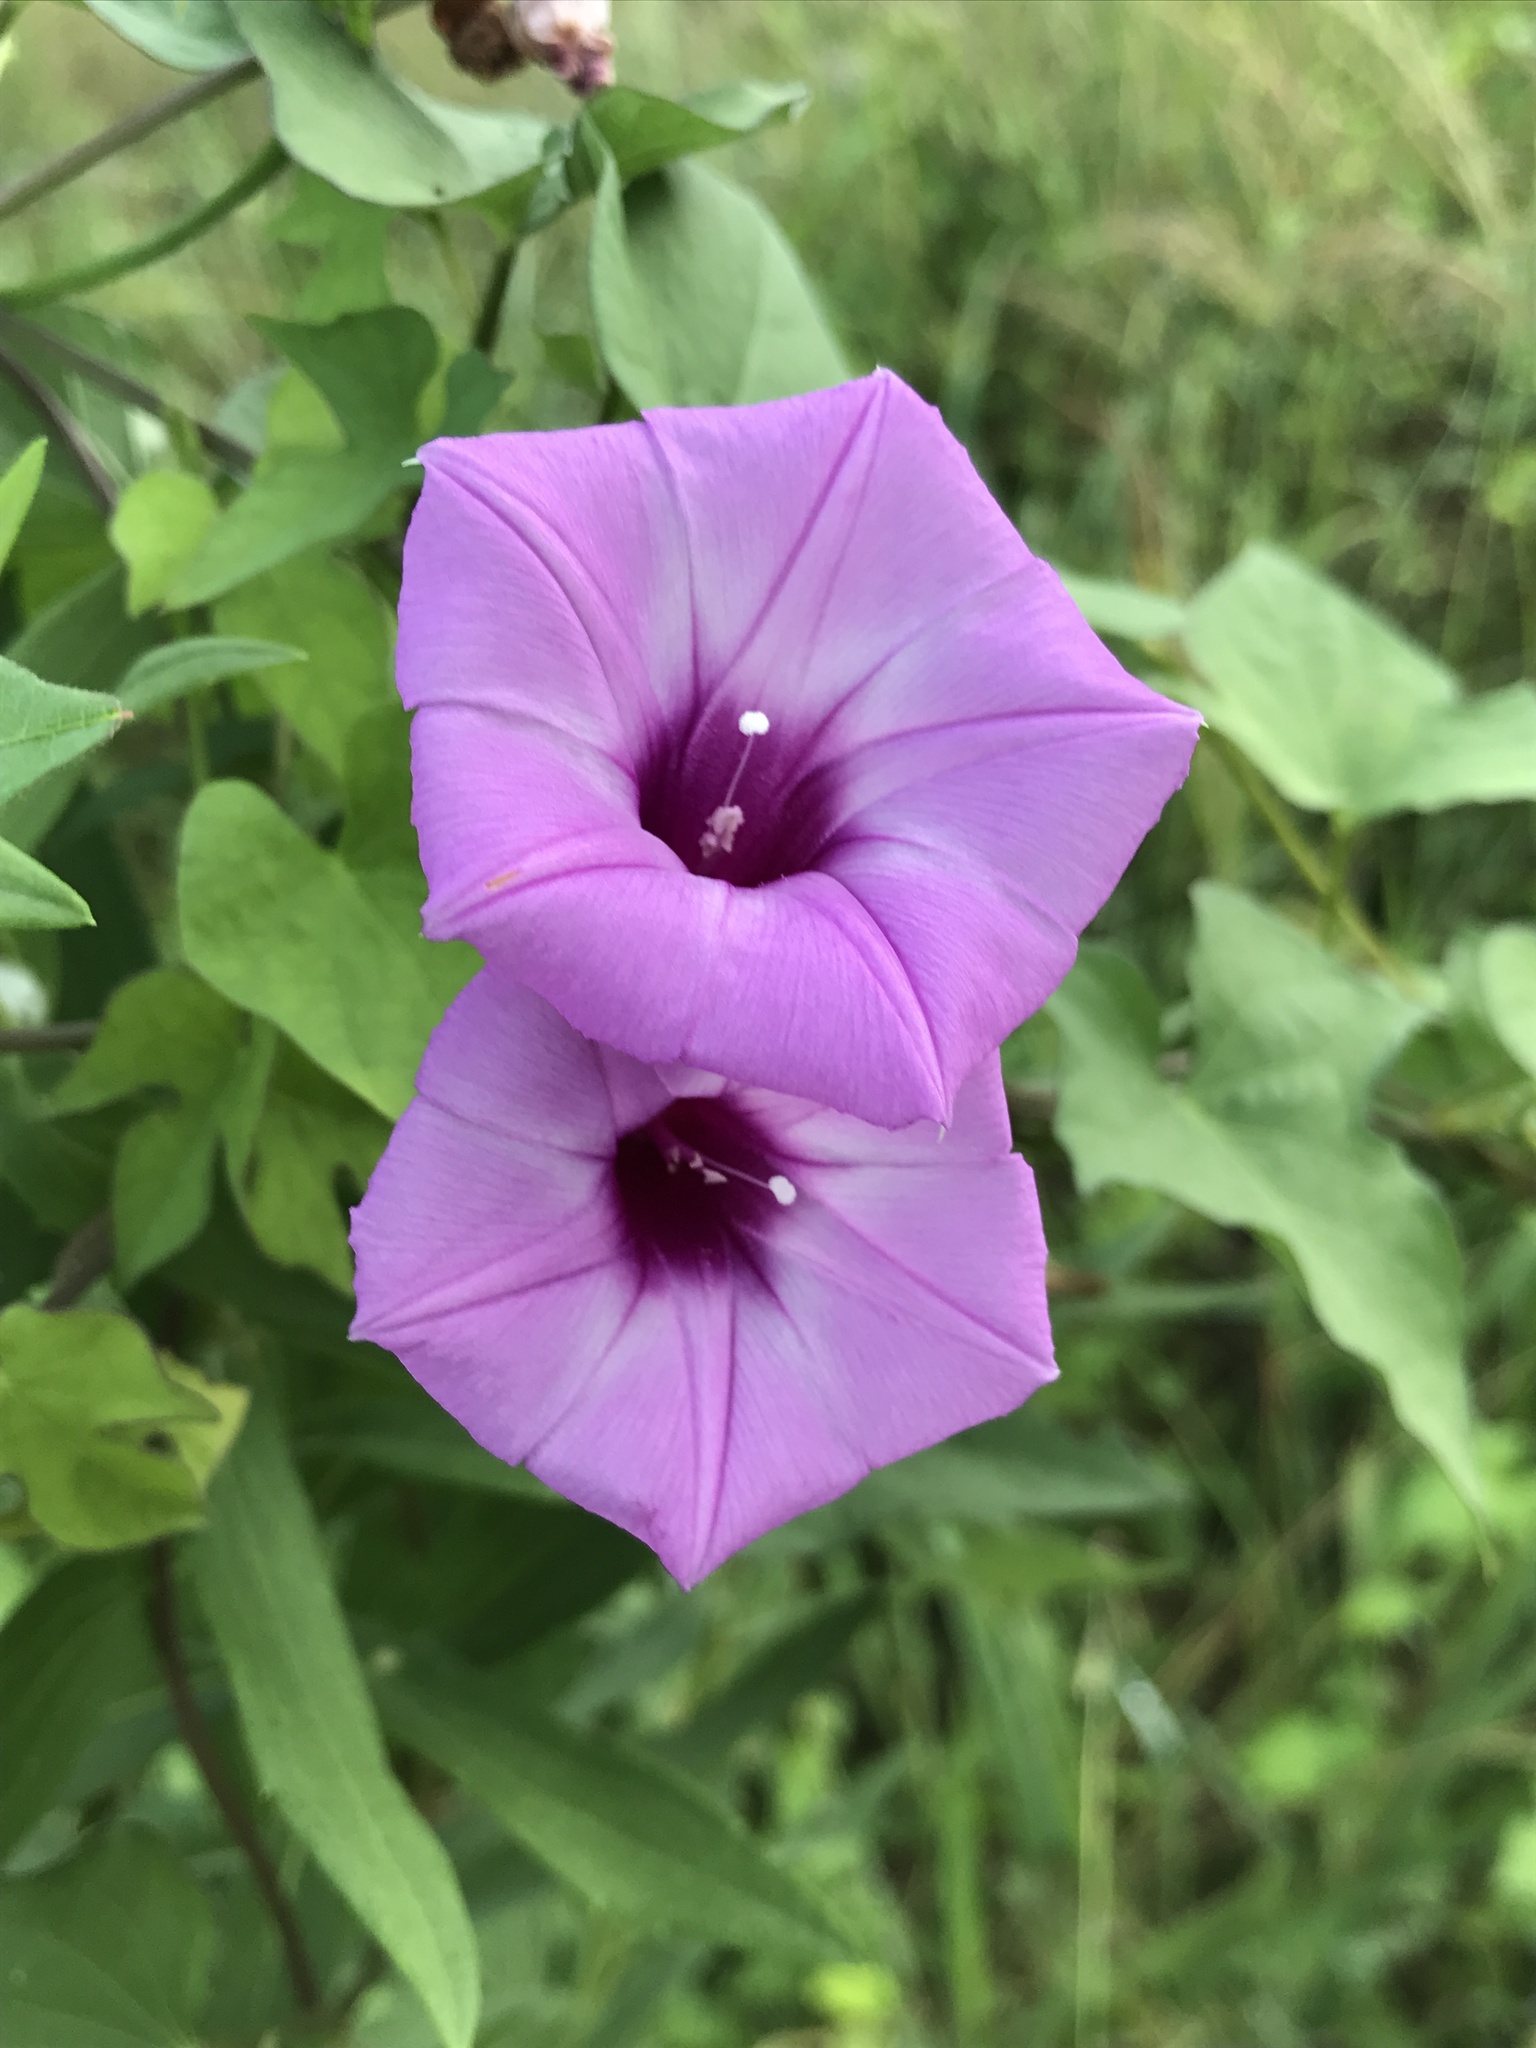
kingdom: Plantae
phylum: Tracheophyta
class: Magnoliopsida
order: Solanales
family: Convolvulaceae
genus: Ipomoea
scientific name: Ipomoea cordatotriloba
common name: Cotton morning glory
